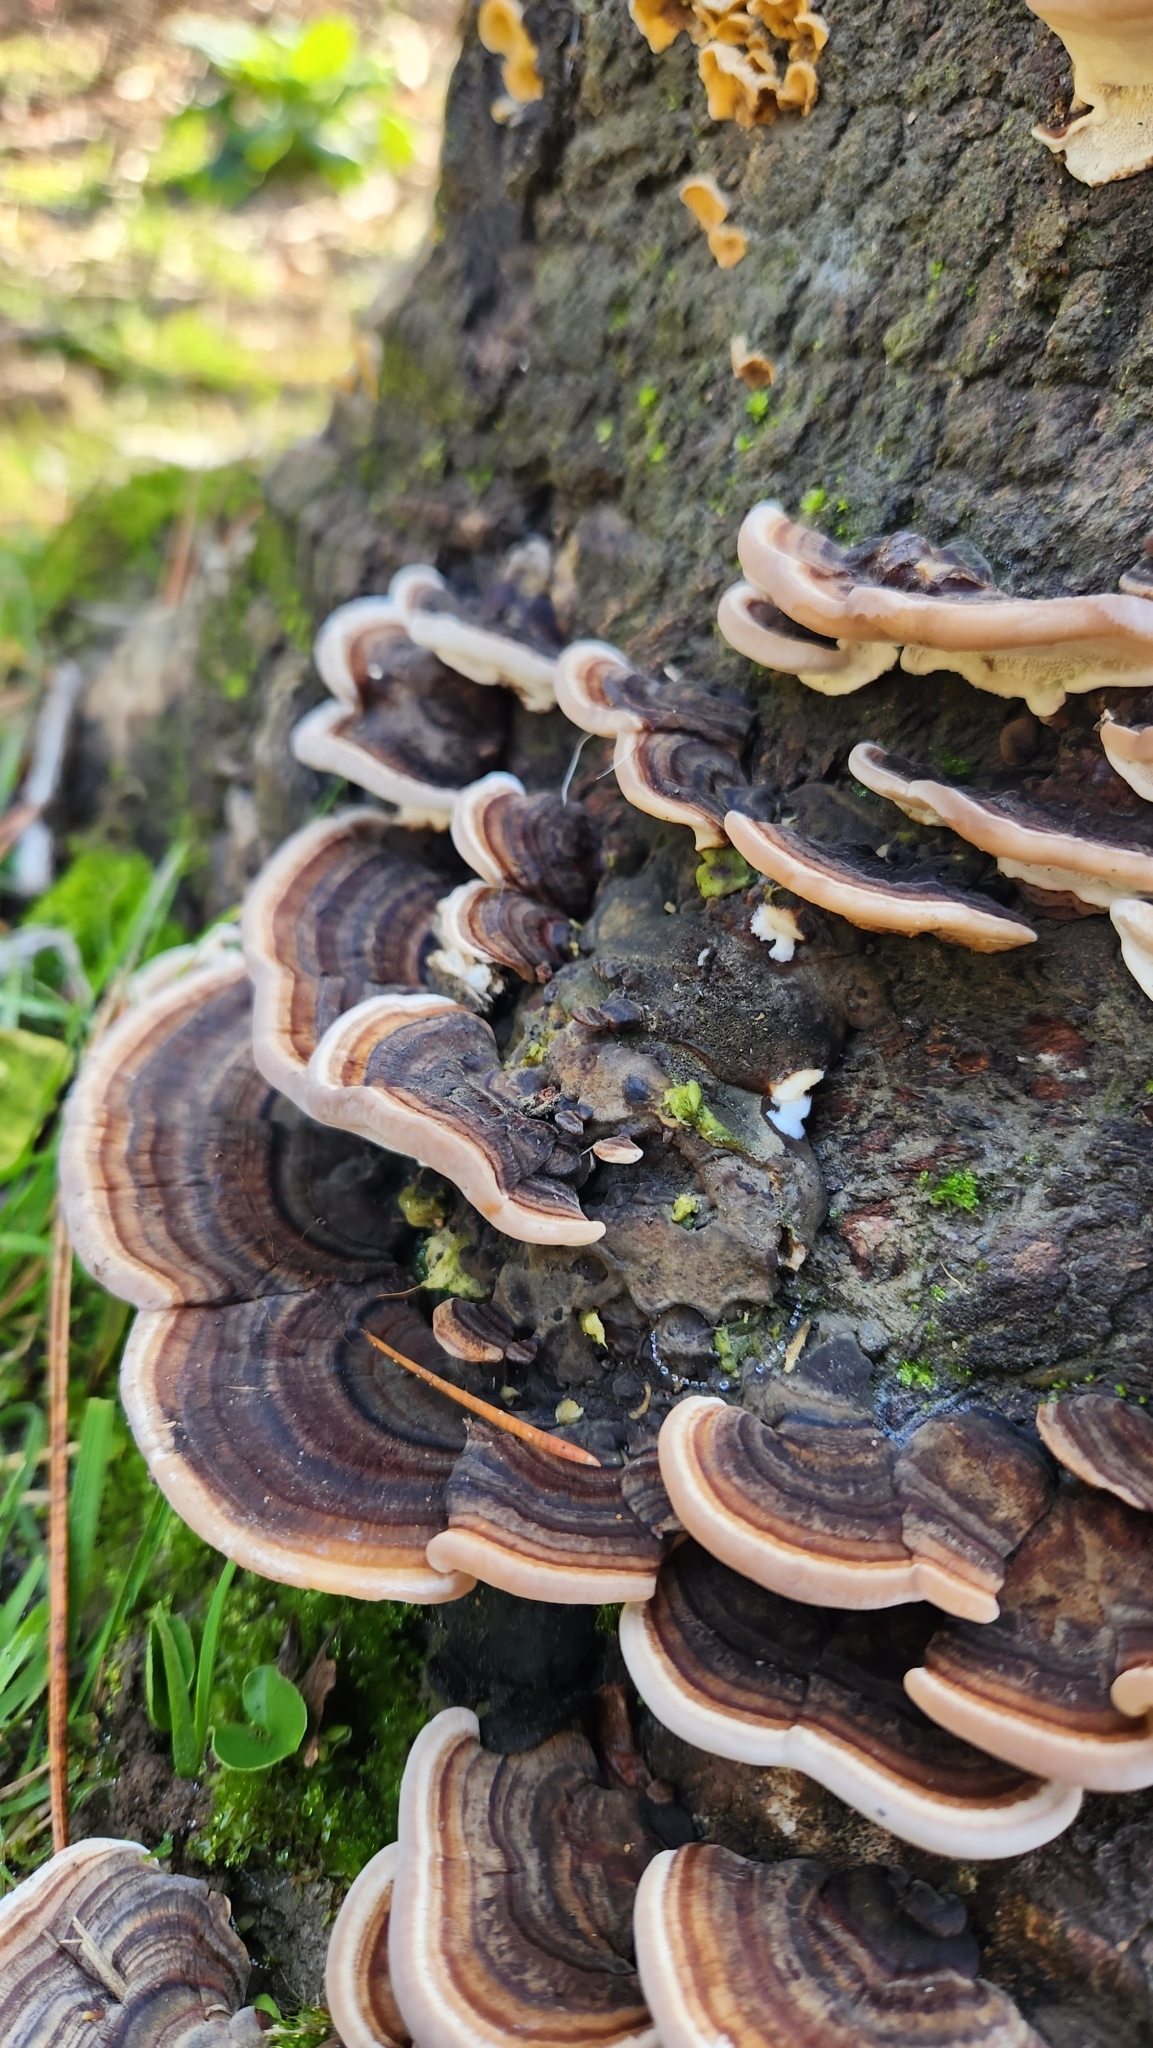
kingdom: Fungi
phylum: Basidiomycota
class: Agaricomycetes
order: Polyporales
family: Polyporaceae
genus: Trametes
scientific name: Trametes versicolor
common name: Turkeytail
